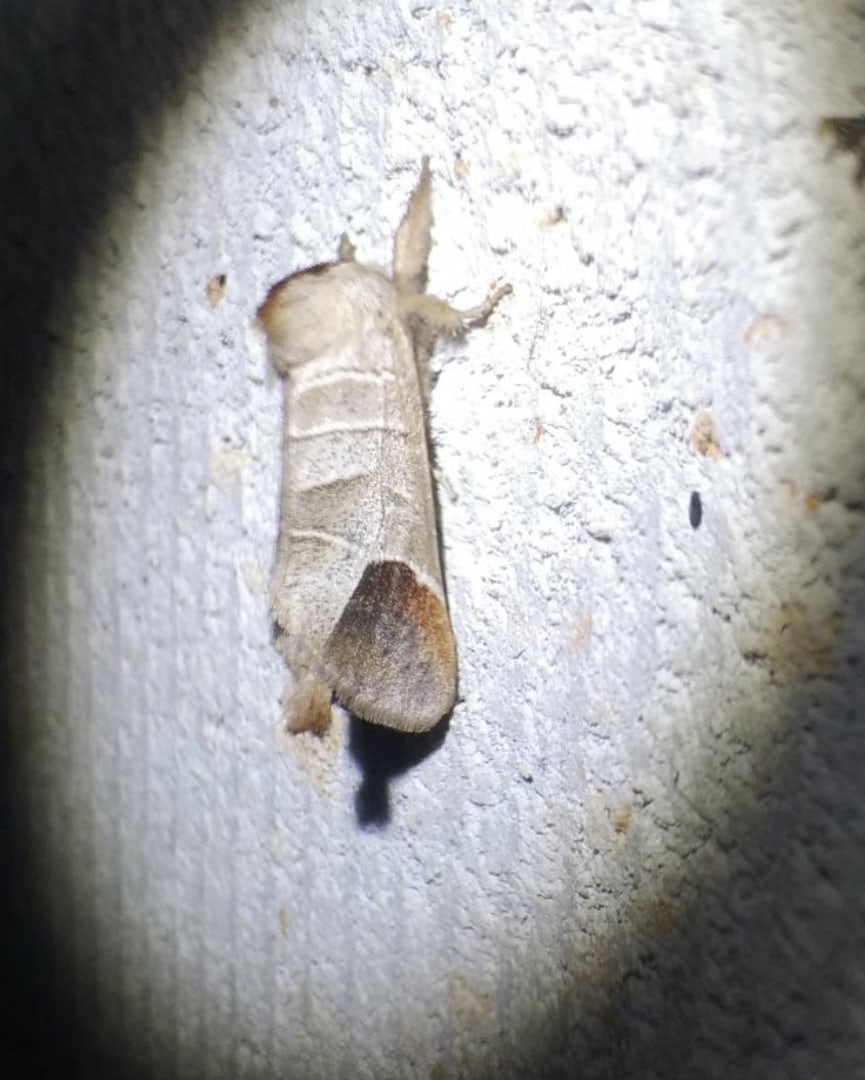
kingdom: Animalia
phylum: Arthropoda
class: Insecta
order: Lepidoptera
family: Notodontidae
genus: Clostera
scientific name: Clostera curtula
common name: Chocolate-tip
